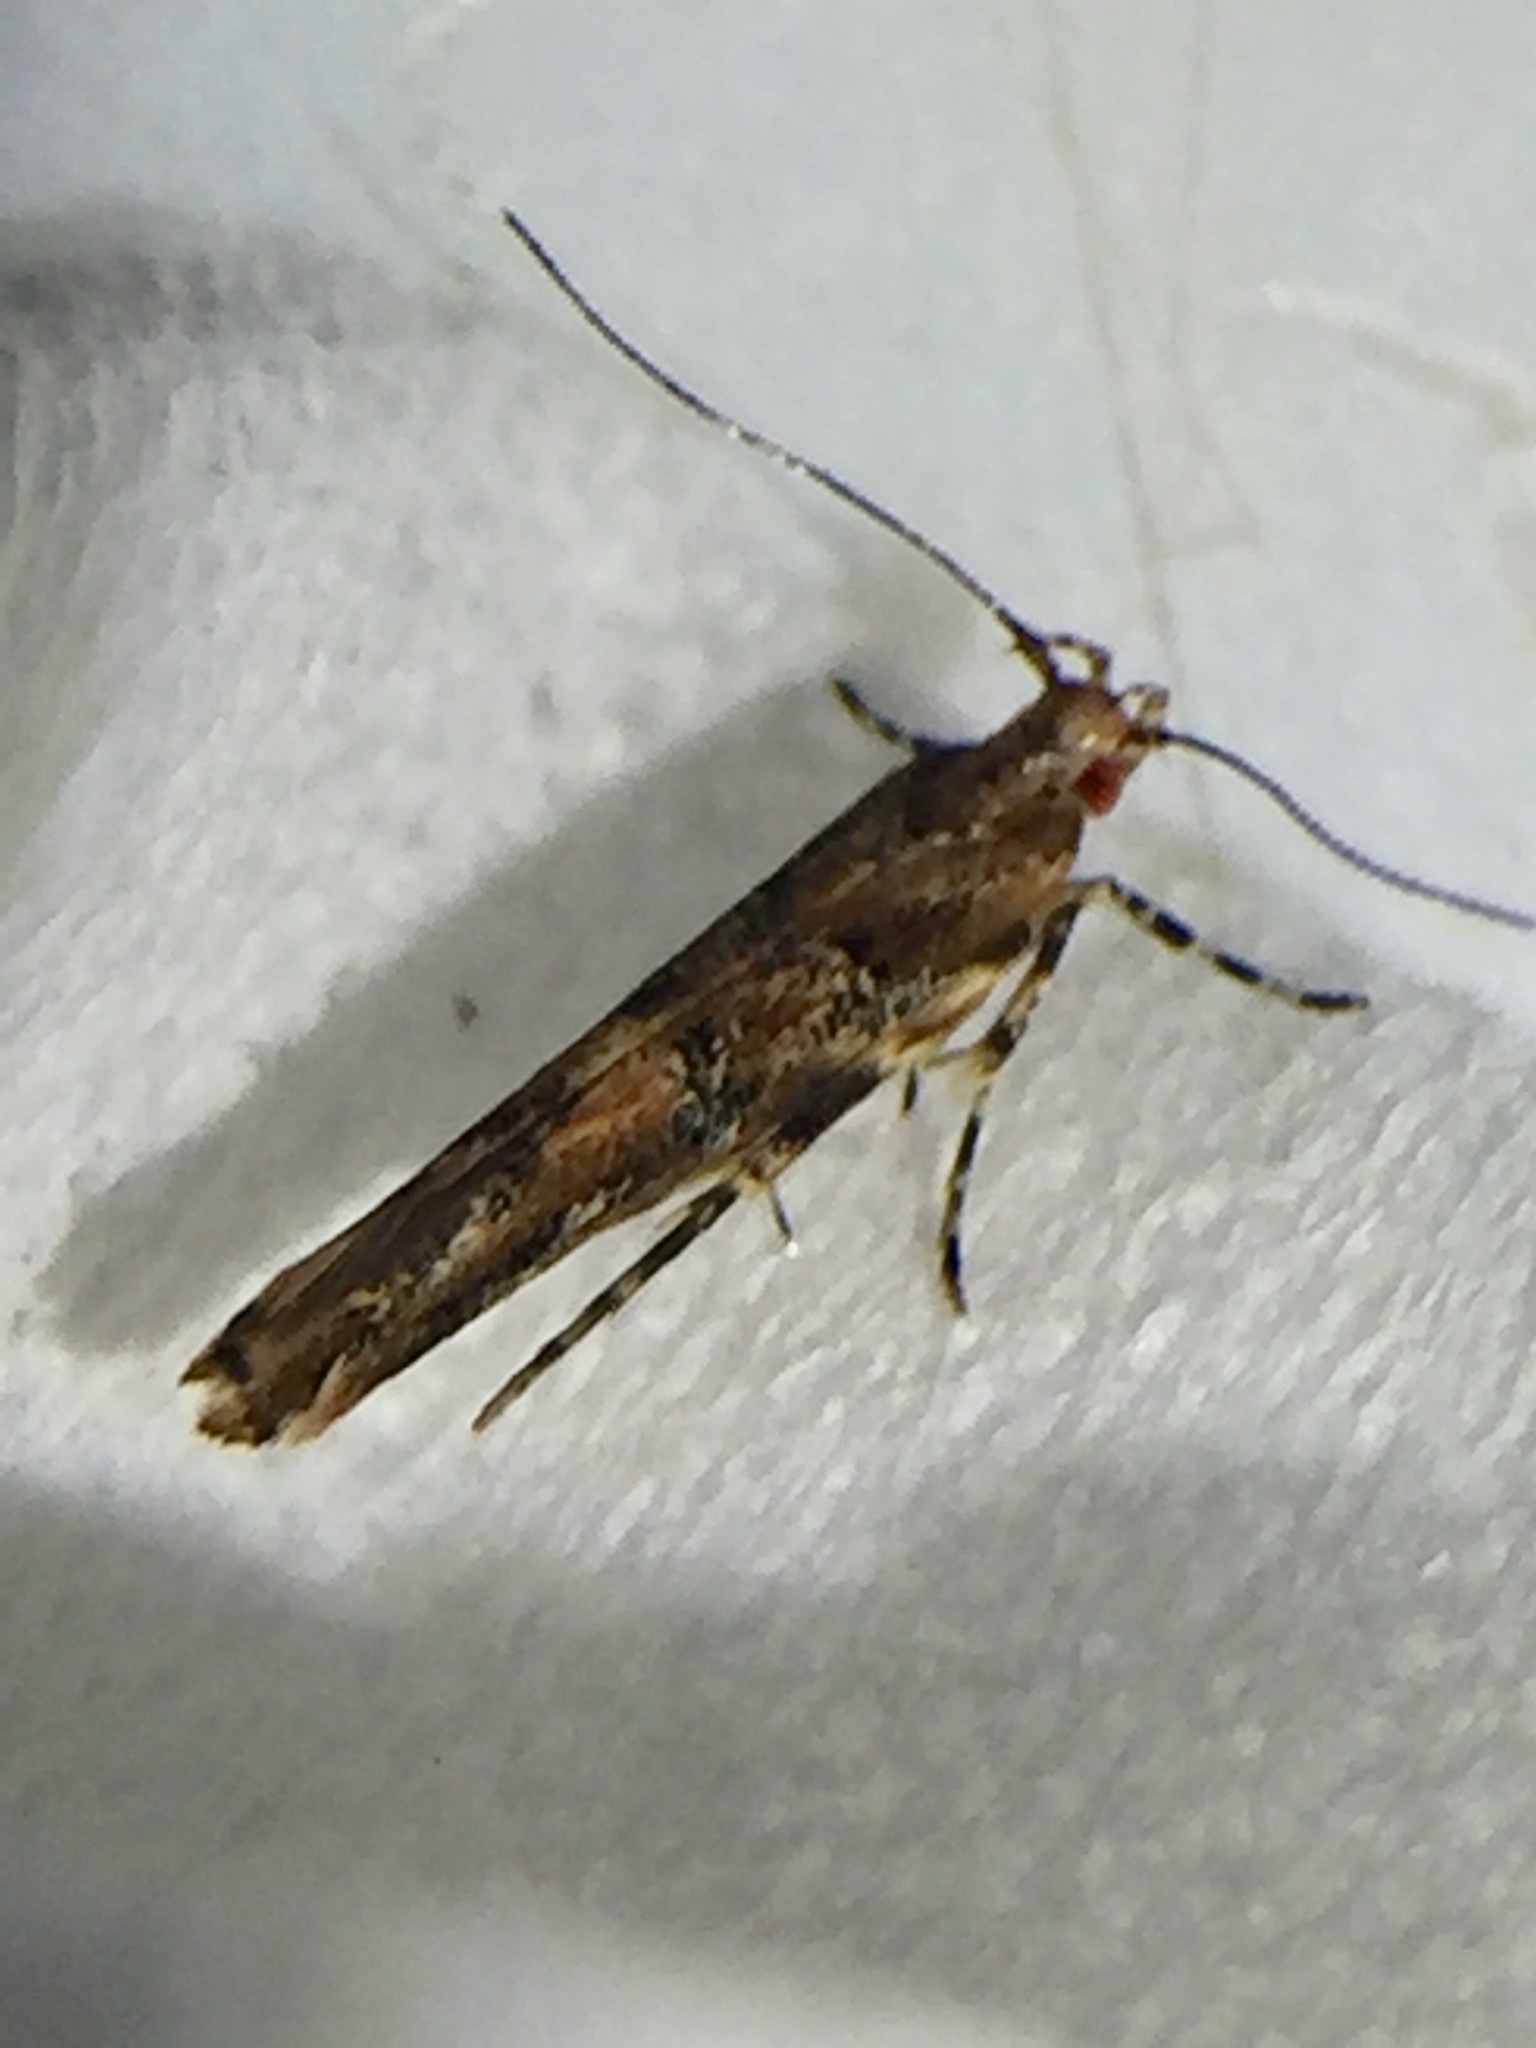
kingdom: Animalia
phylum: Arthropoda
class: Insecta
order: Lepidoptera
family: Cosmopterigidae
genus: Pyroderces
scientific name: Pyroderces aellotricha
